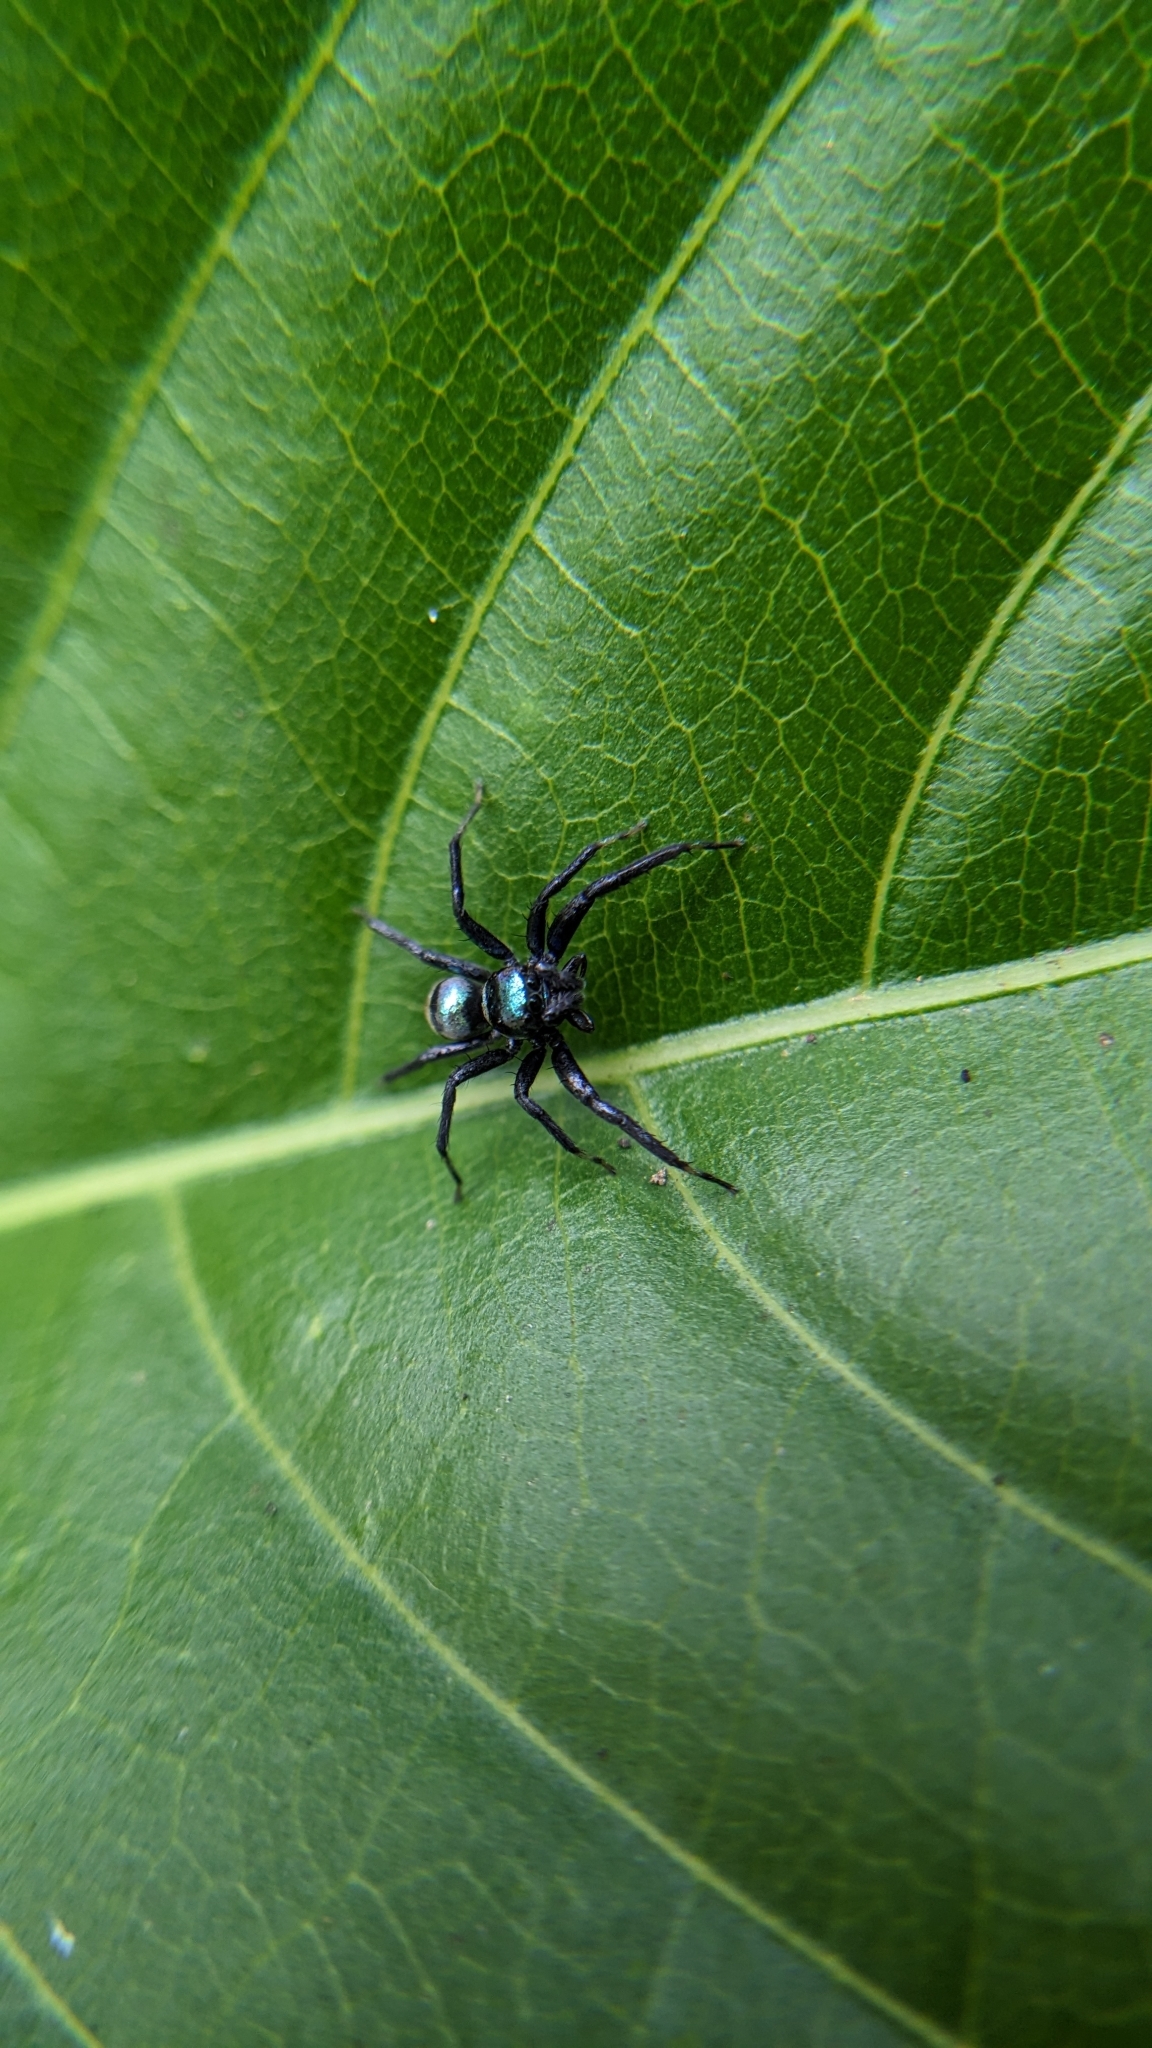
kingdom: Animalia
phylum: Arthropoda
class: Arachnida
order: Araneae
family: Salticidae
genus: Phintella
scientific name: Phintella vittata
